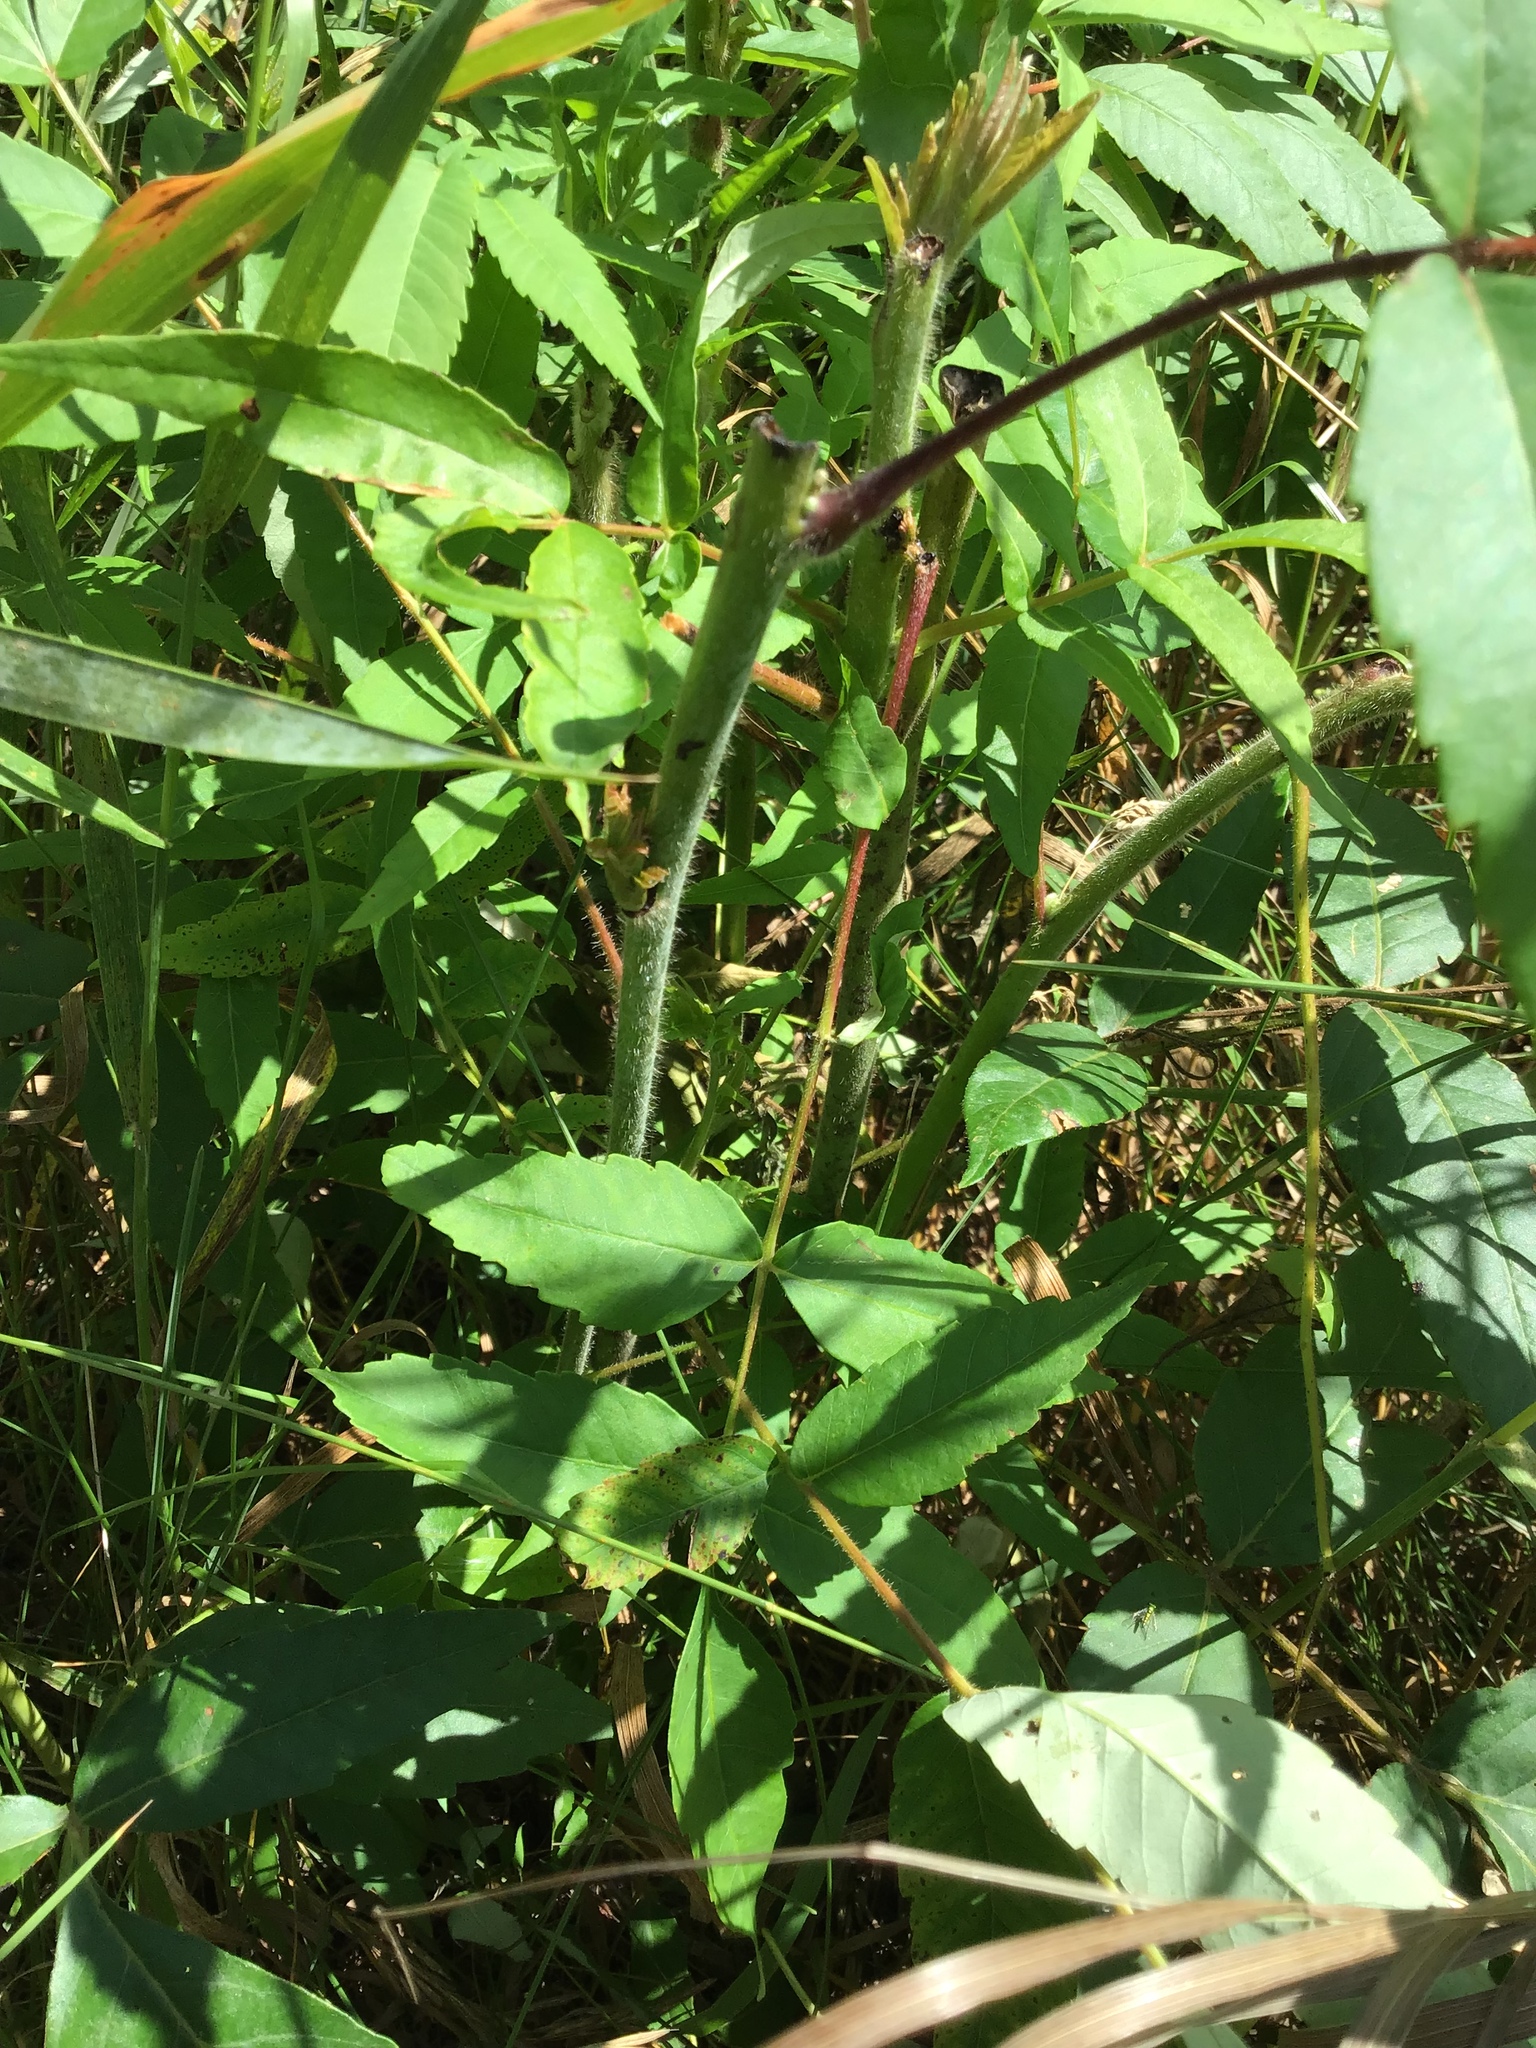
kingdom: Plantae
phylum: Tracheophyta
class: Magnoliopsida
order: Sapindales
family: Anacardiaceae
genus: Rhus
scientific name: Rhus typhina
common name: Staghorn sumac
